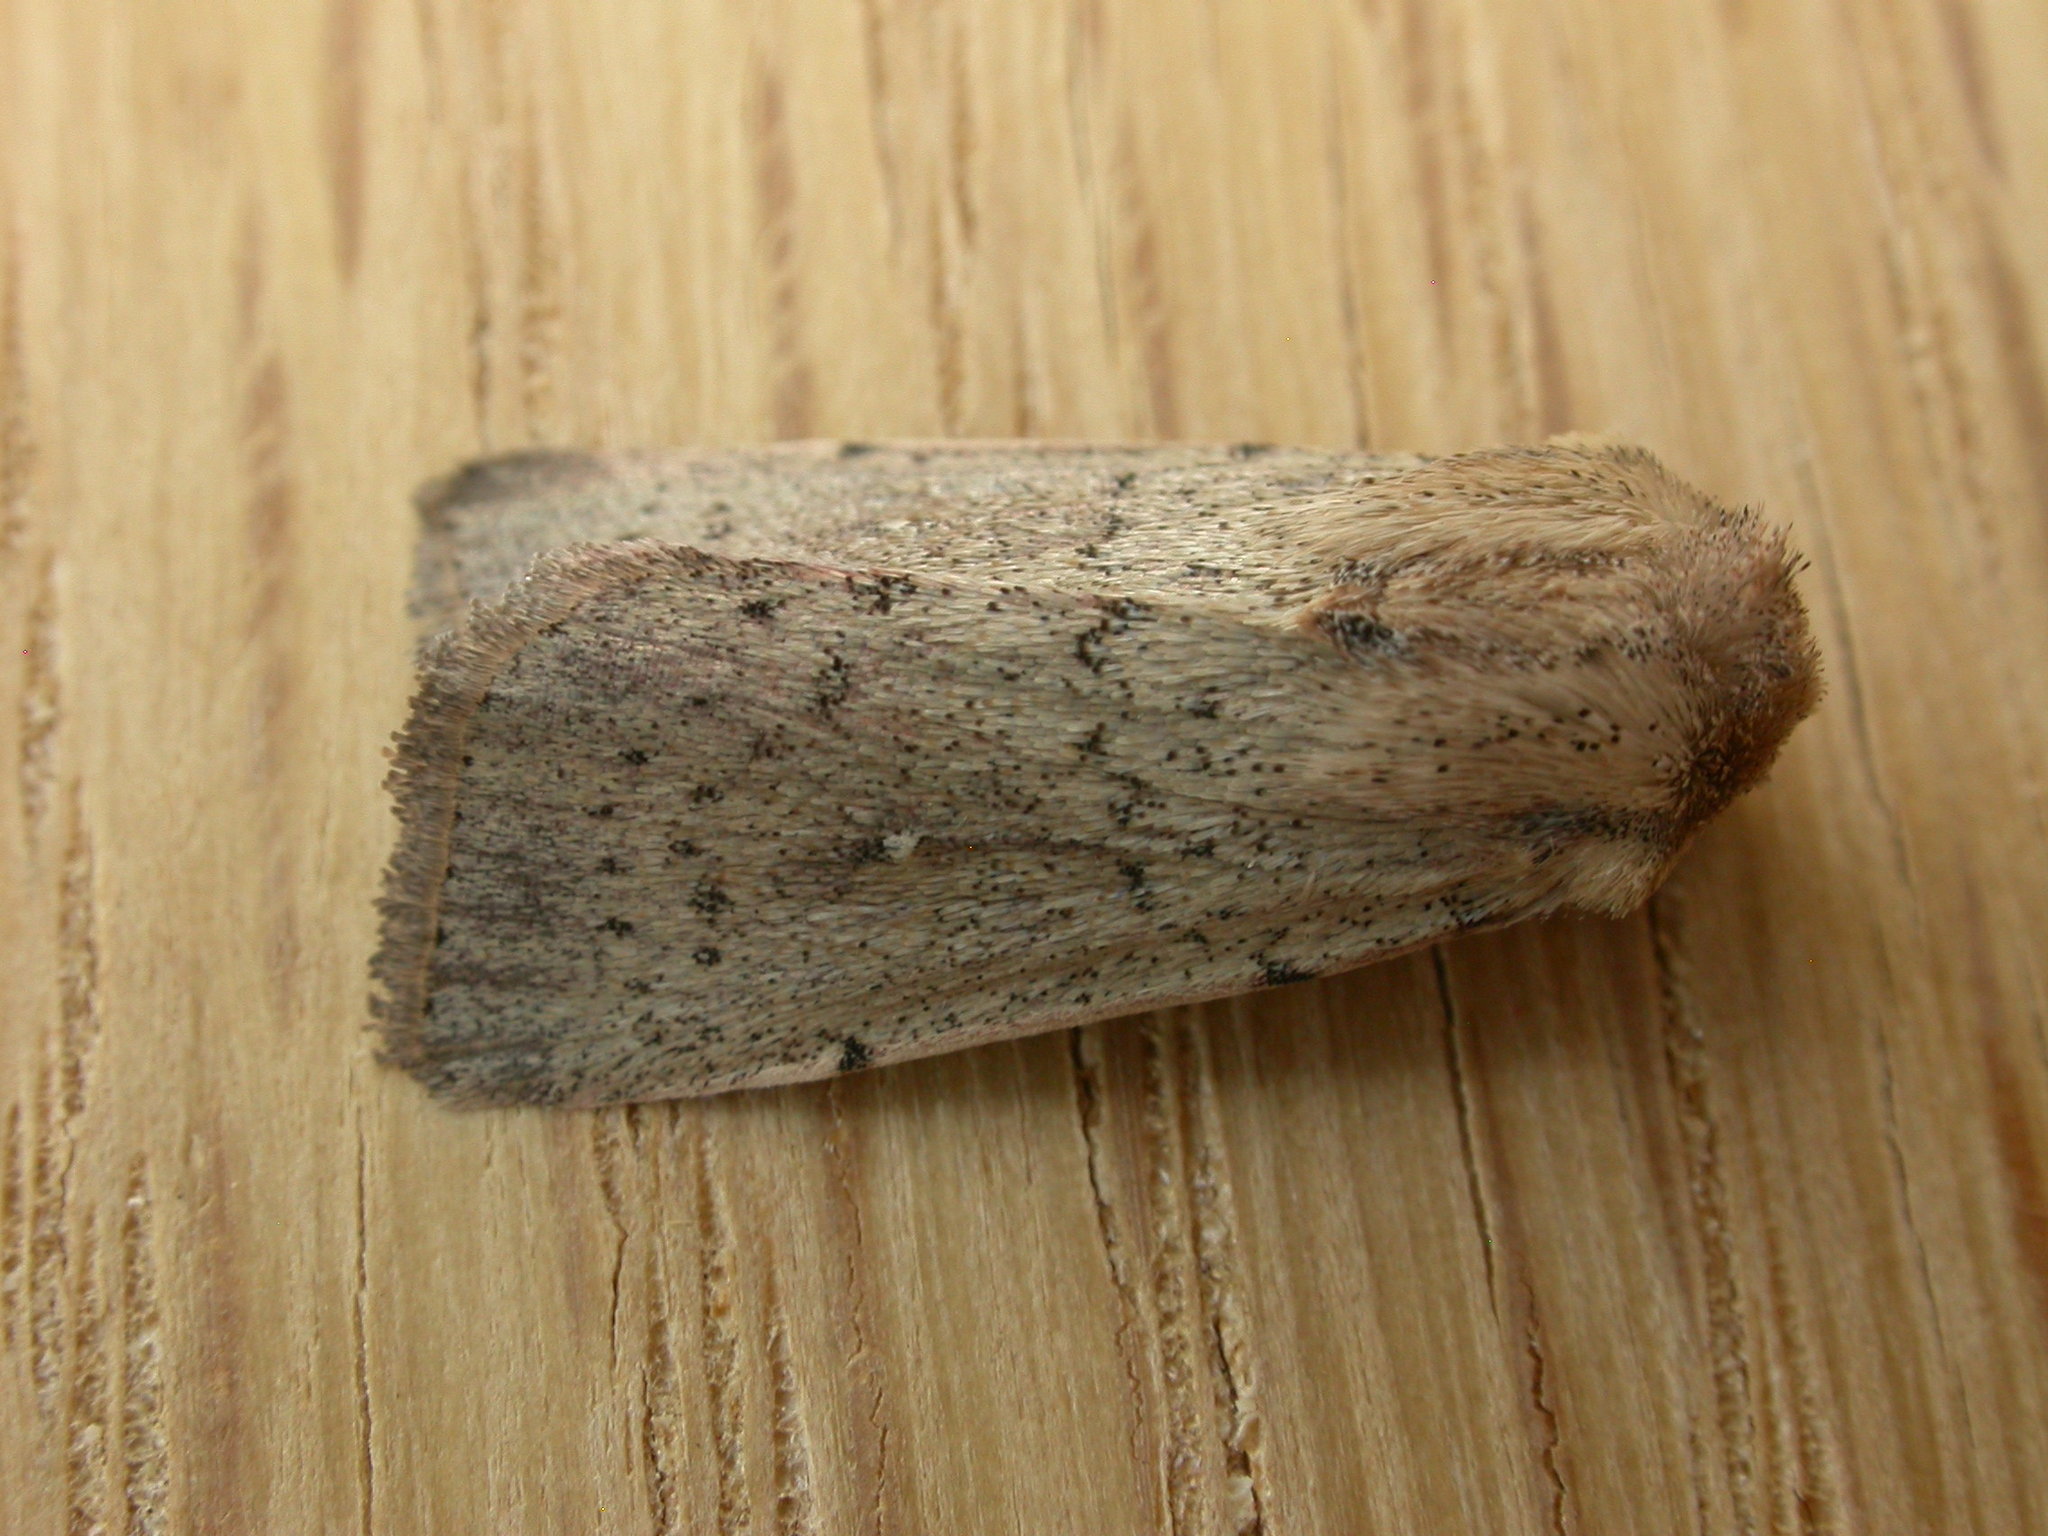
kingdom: Animalia
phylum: Arthropoda
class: Insecta
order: Lepidoptera
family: Noctuidae
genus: Leucania
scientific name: Leucania uda
